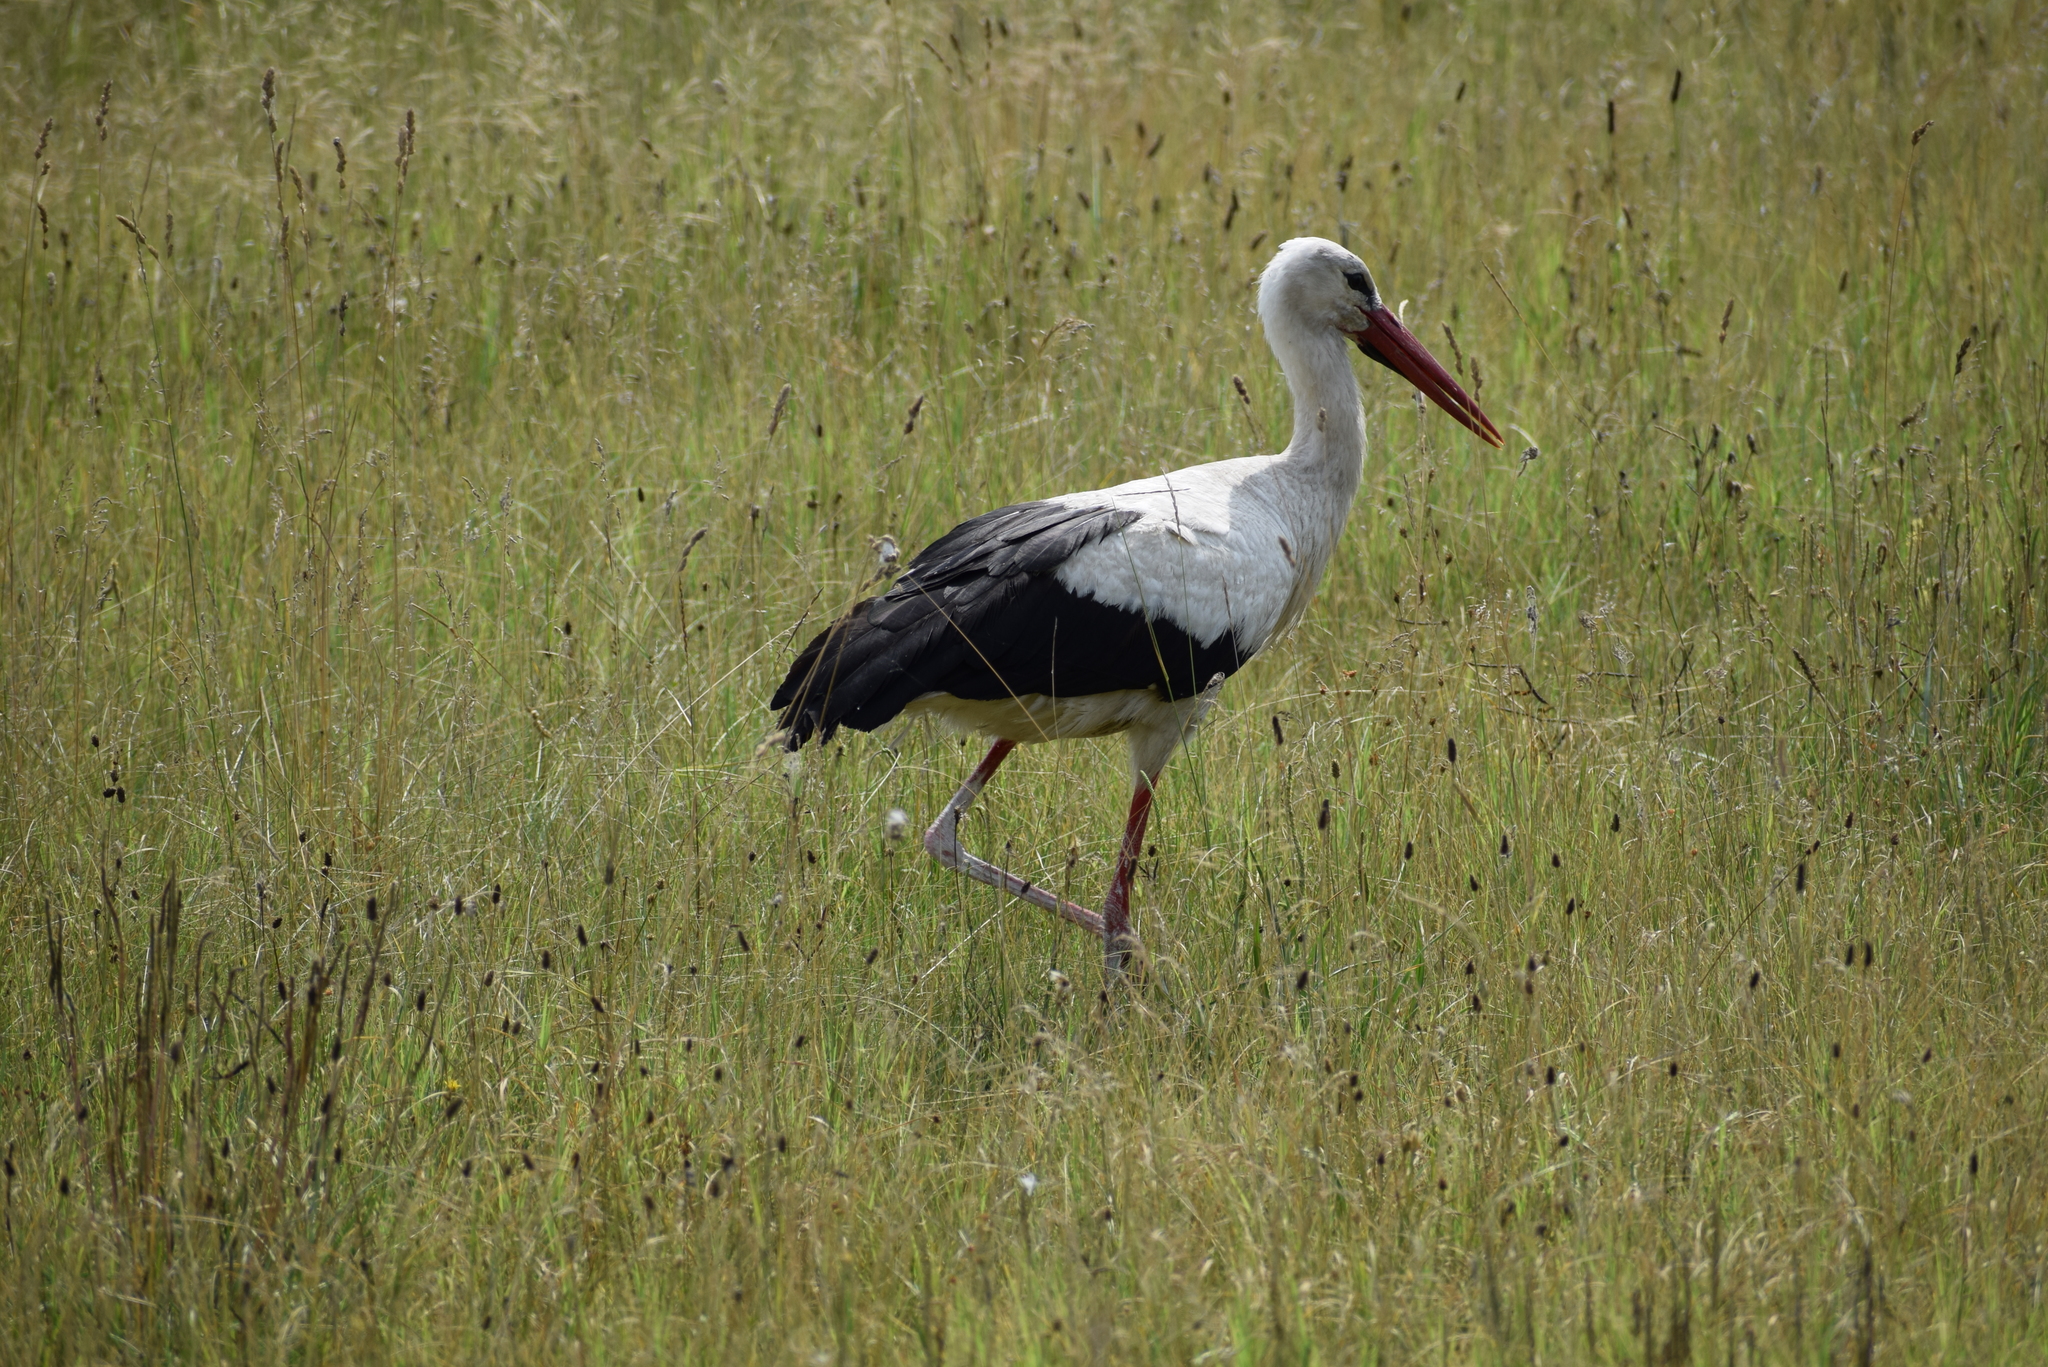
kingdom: Animalia
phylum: Chordata
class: Aves
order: Ciconiiformes
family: Ciconiidae
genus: Ciconia
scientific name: Ciconia ciconia
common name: White stork
